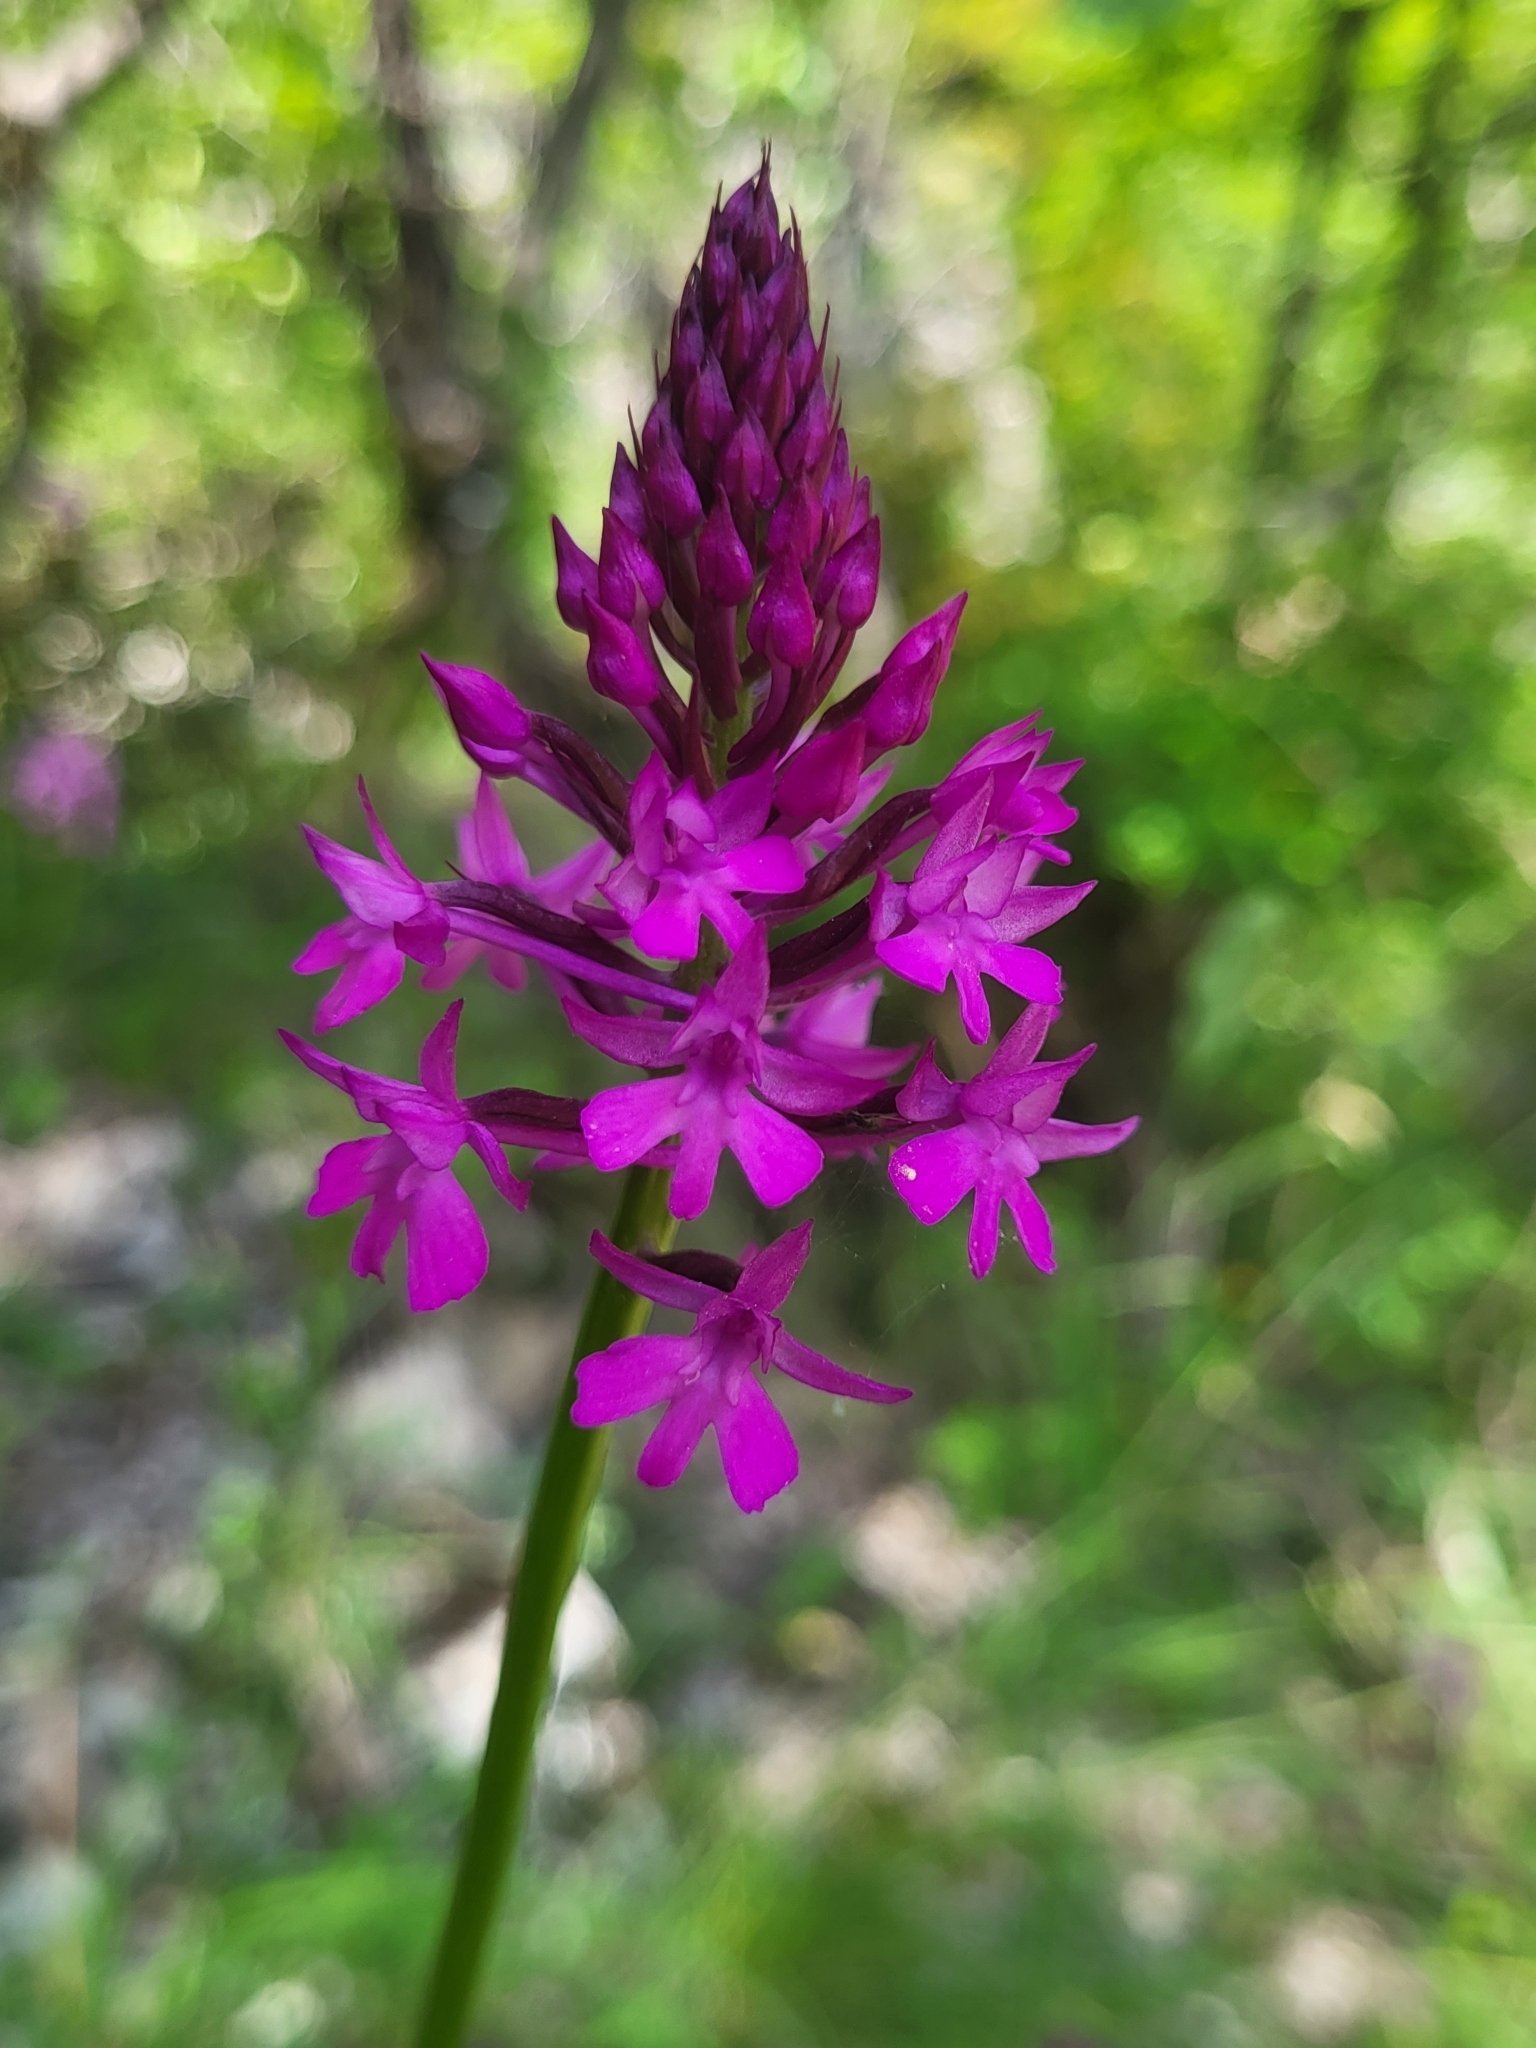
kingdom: Plantae
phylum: Tracheophyta
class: Liliopsida
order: Asparagales
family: Orchidaceae
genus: Anacamptis
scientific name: Anacamptis pyramidalis
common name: Pyramidal orchid
